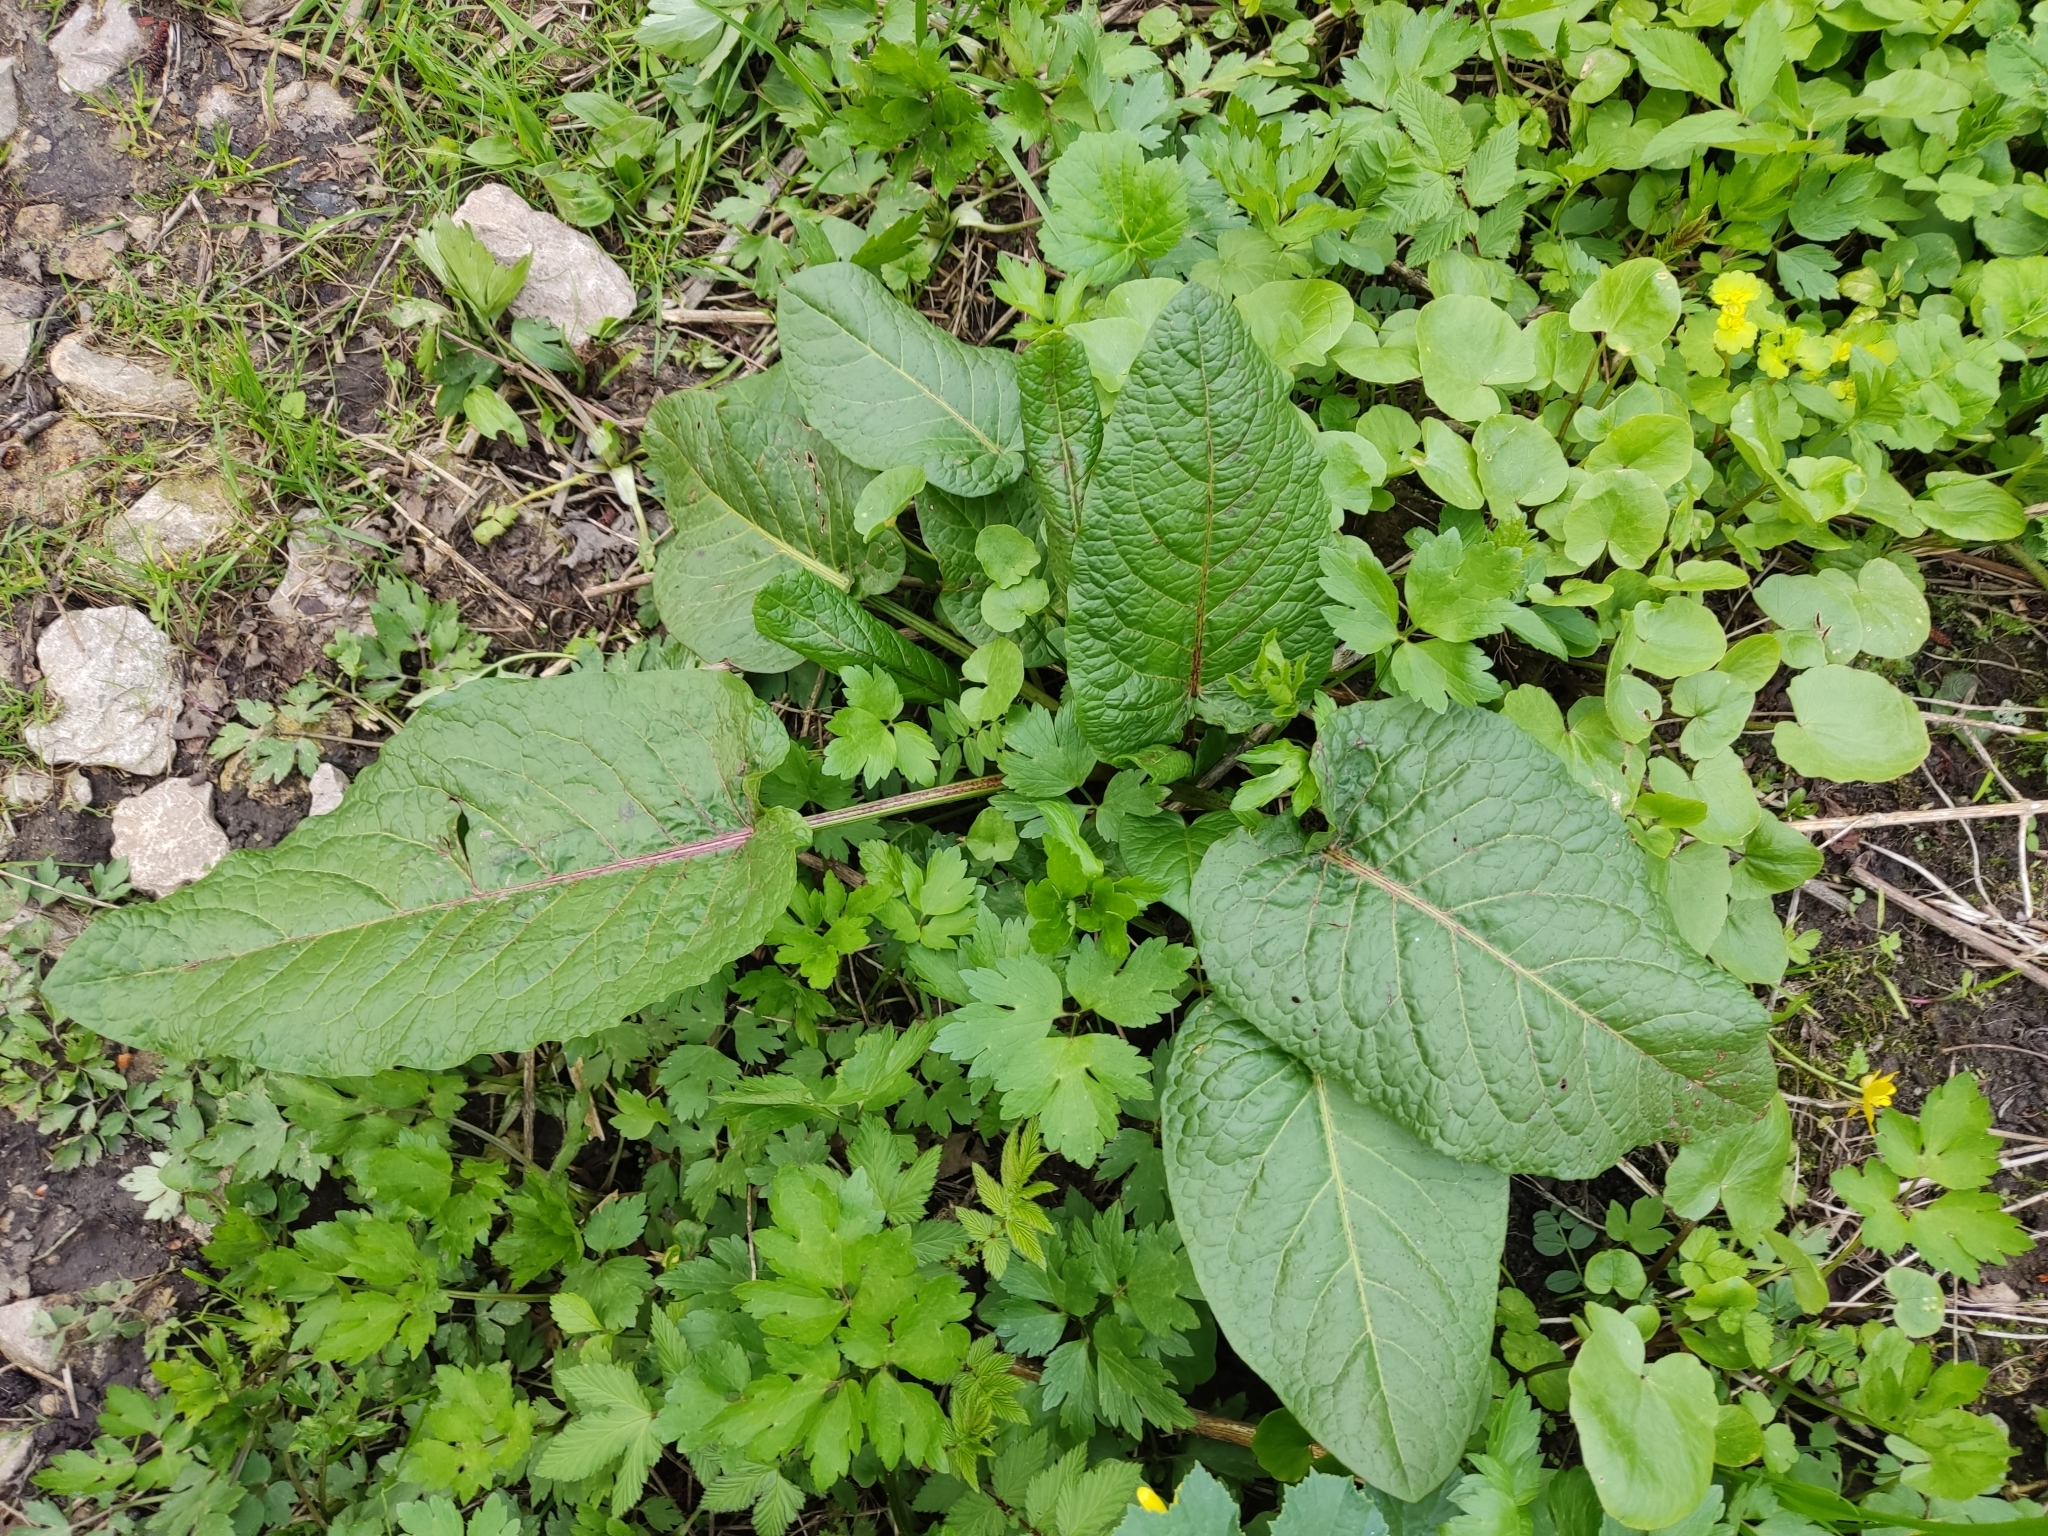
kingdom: Plantae
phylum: Tracheophyta
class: Magnoliopsida
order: Caryophyllales
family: Polygonaceae
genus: Rumex
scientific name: Rumex obtusifolius
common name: Bitter dock
